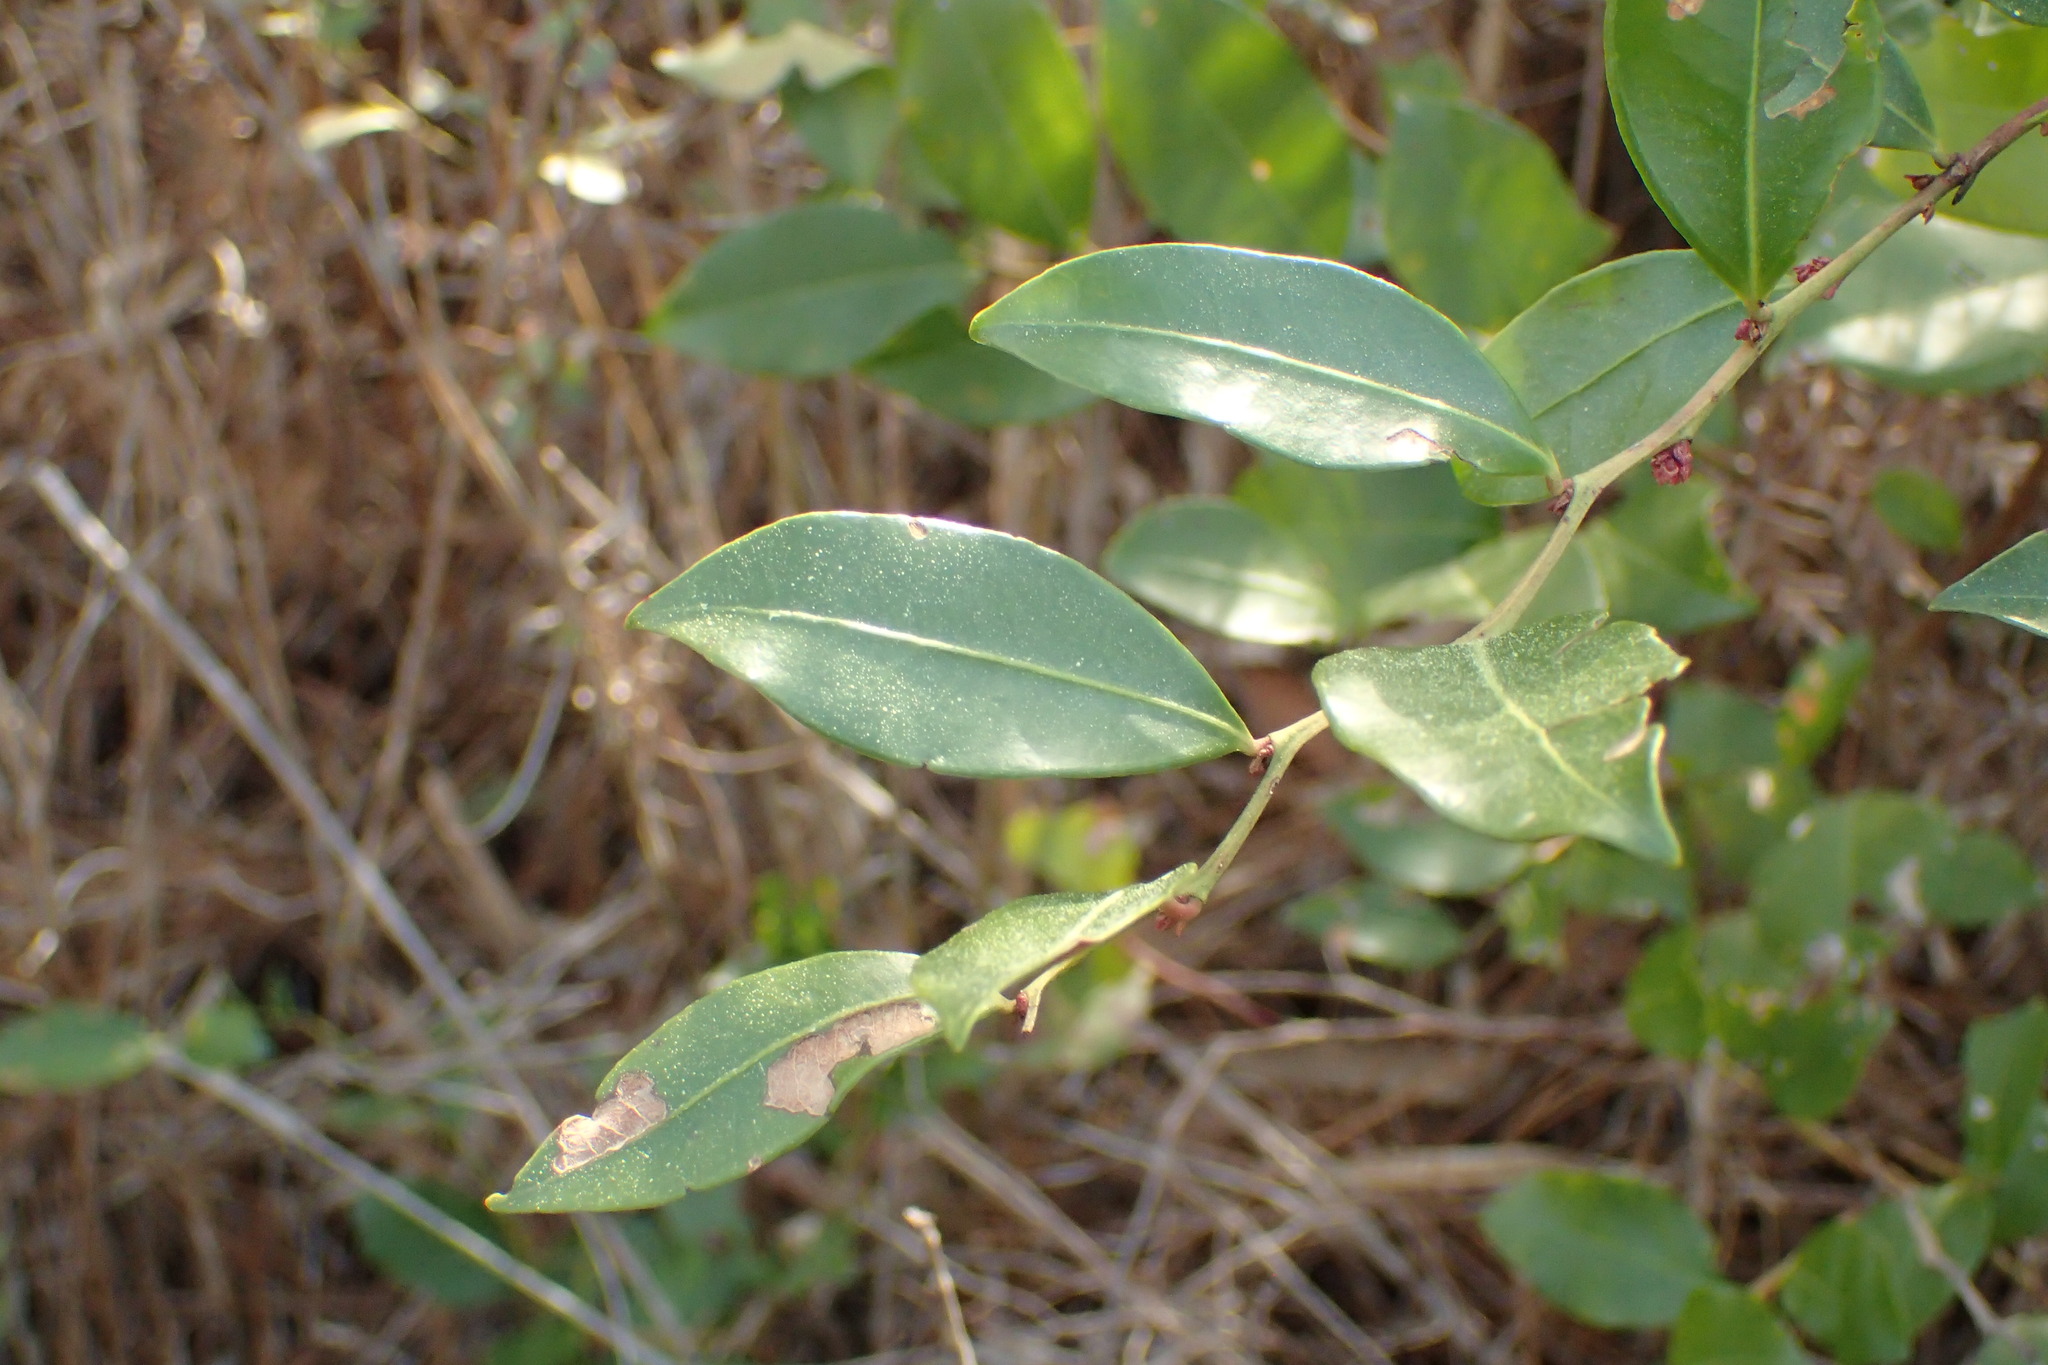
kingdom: Plantae
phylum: Tracheophyta
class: Magnoliopsida
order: Ericales
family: Ericaceae
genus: Lyonia
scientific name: Lyonia lucida
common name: Fetterbush
